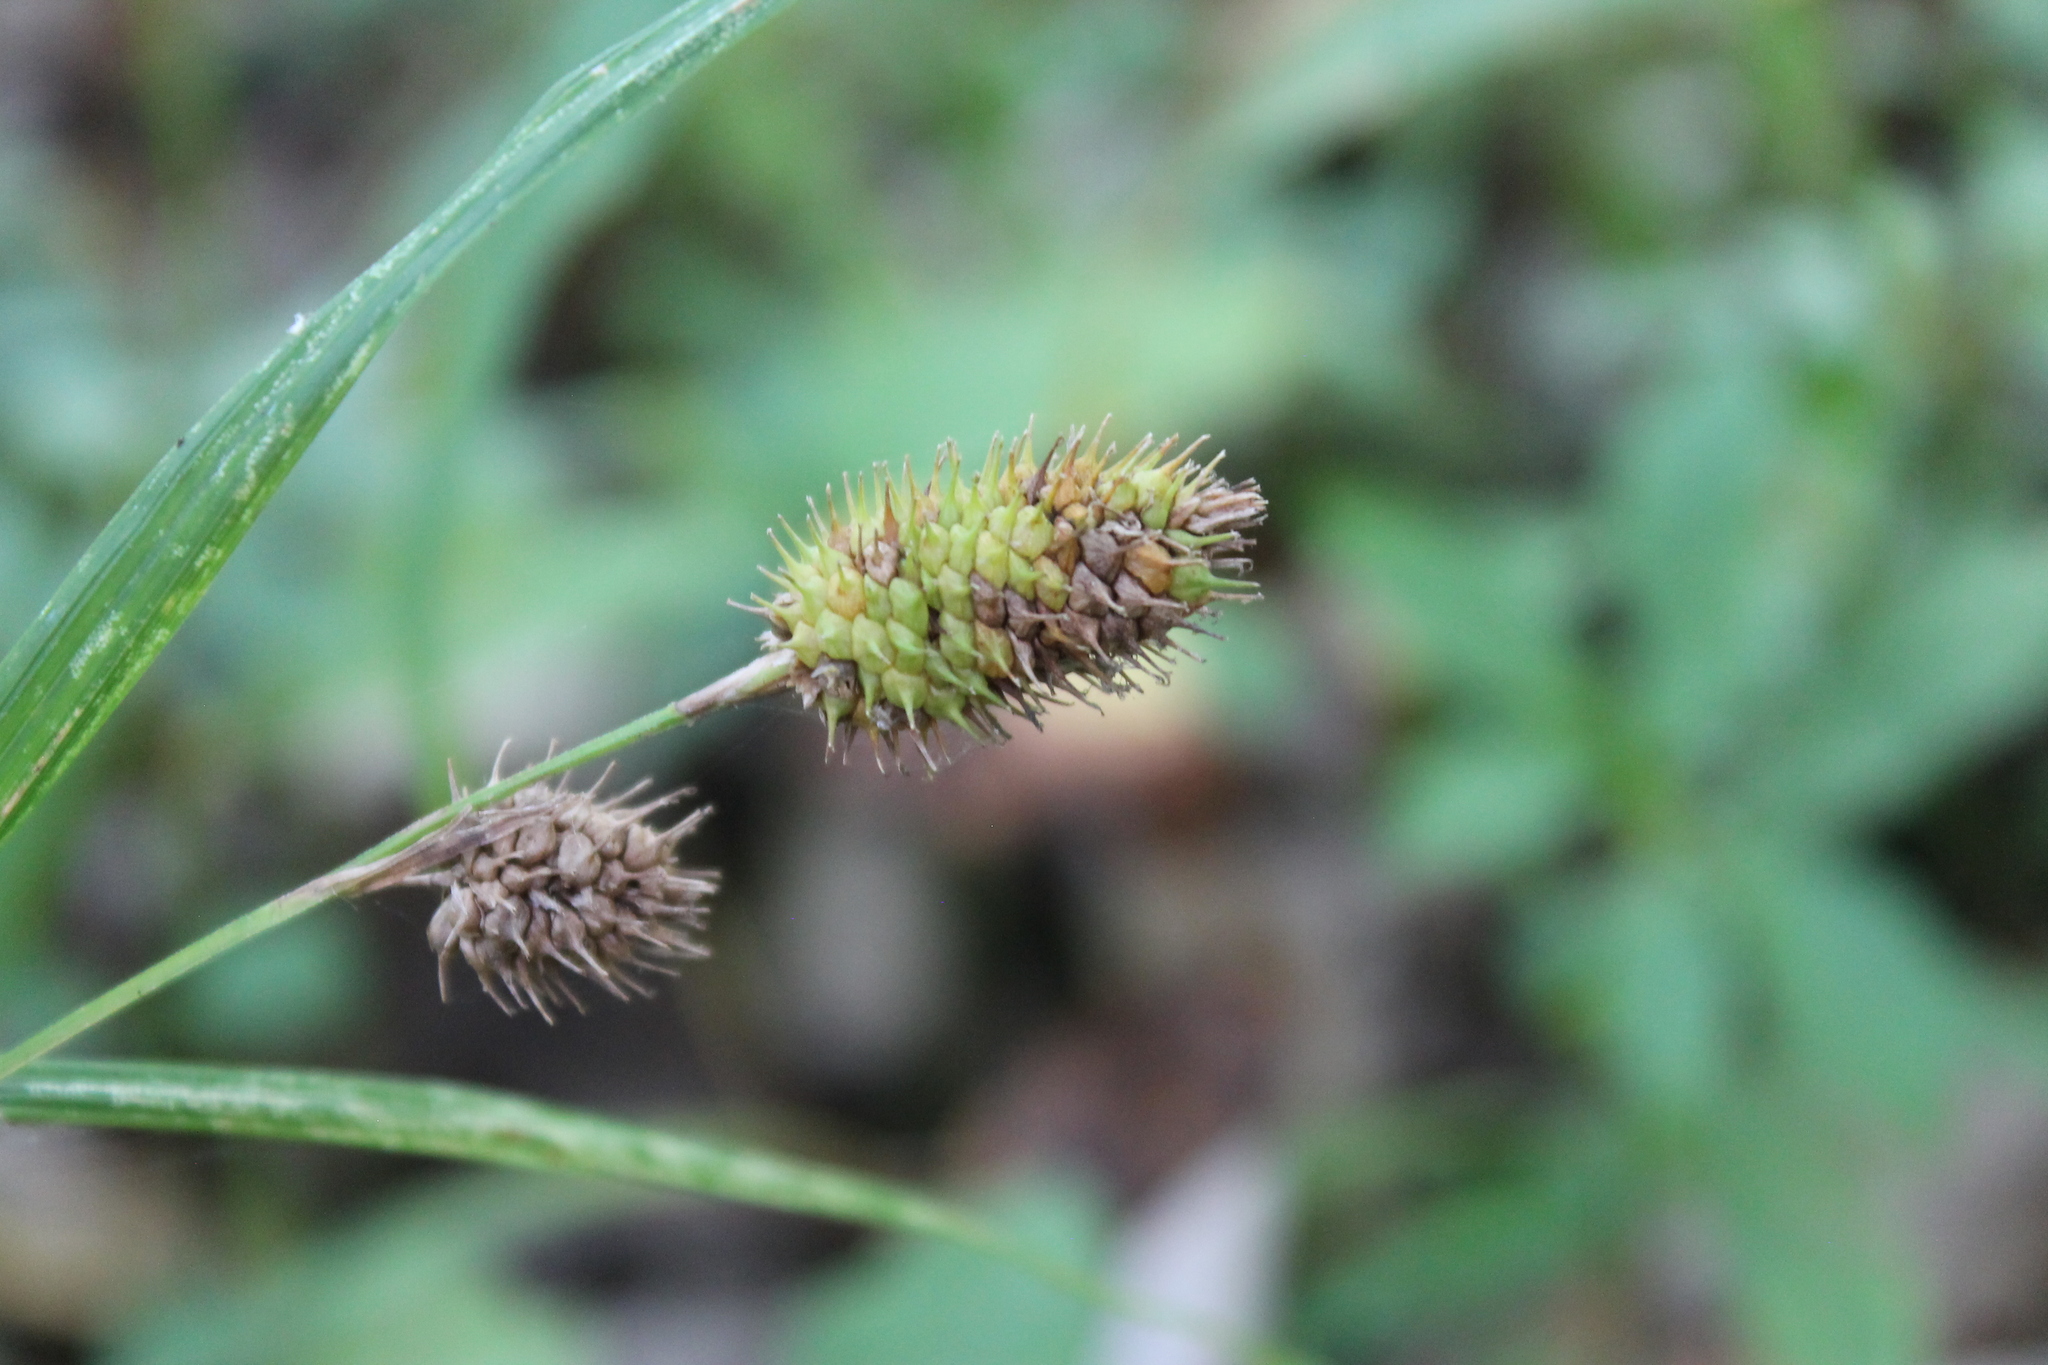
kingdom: Plantae
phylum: Tracheophyta
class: Liliopsida
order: Poales
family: Cyperaceae
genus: Carex
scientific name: Carex squarrosa
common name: Narrow-leaved cattail sedge
